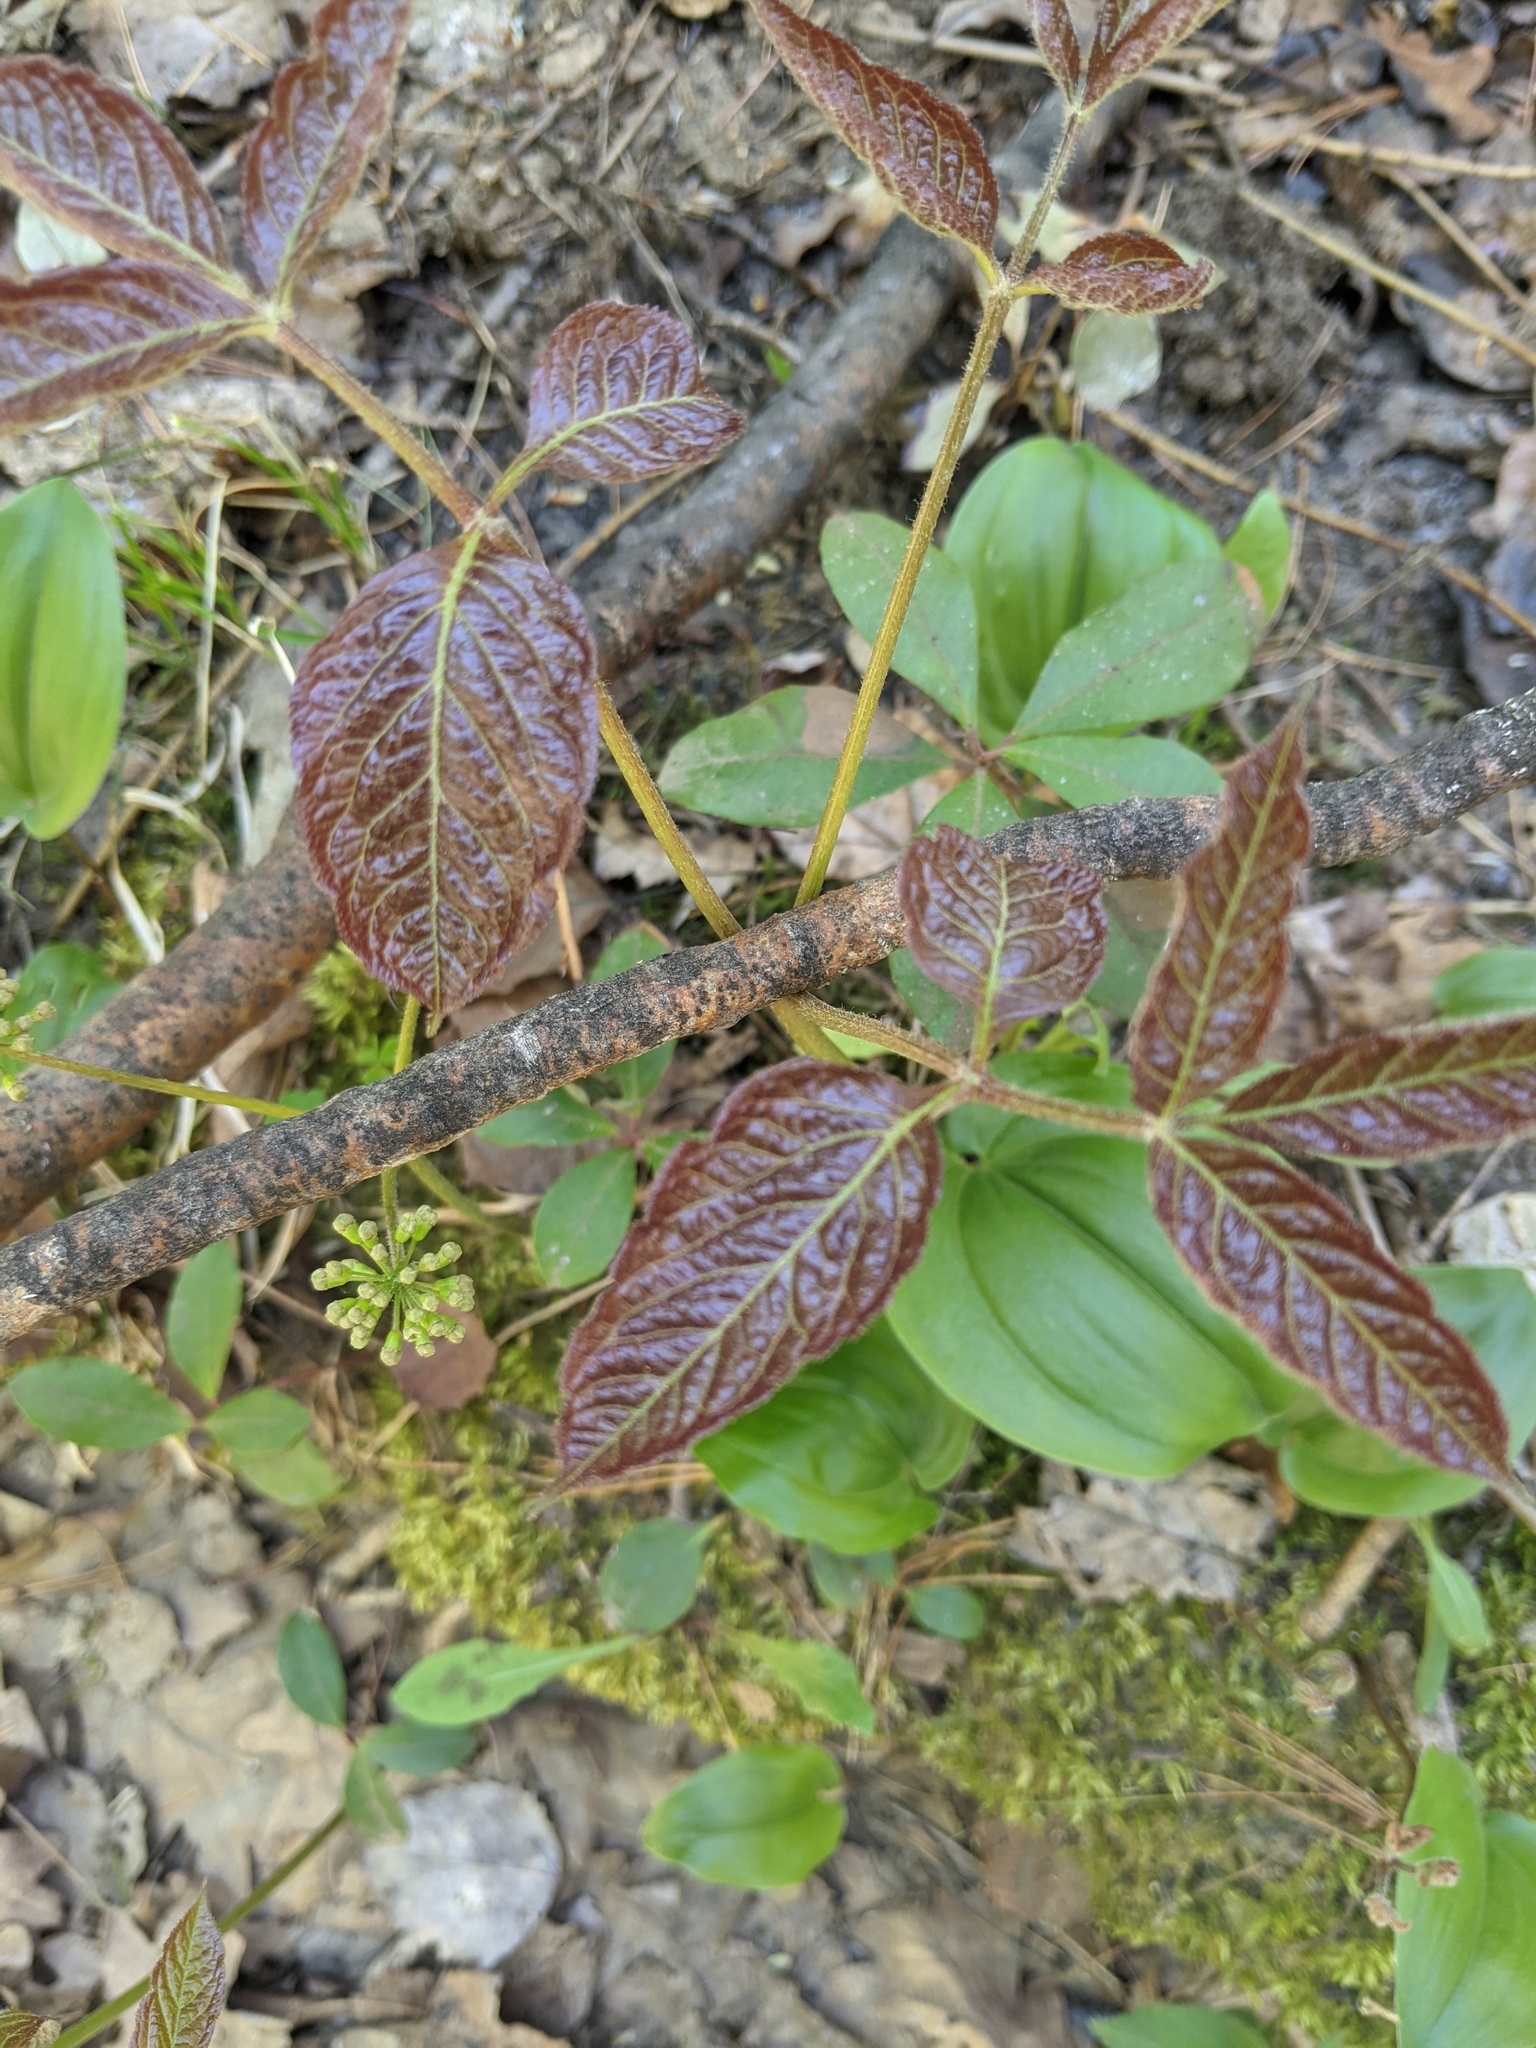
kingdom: Plantae
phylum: Tracheophyta
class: Magnoliopsida
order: Apiales
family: Araliaceae
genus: Aralia
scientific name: Aralia nudicaulis
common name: Wild sarsaparilla
